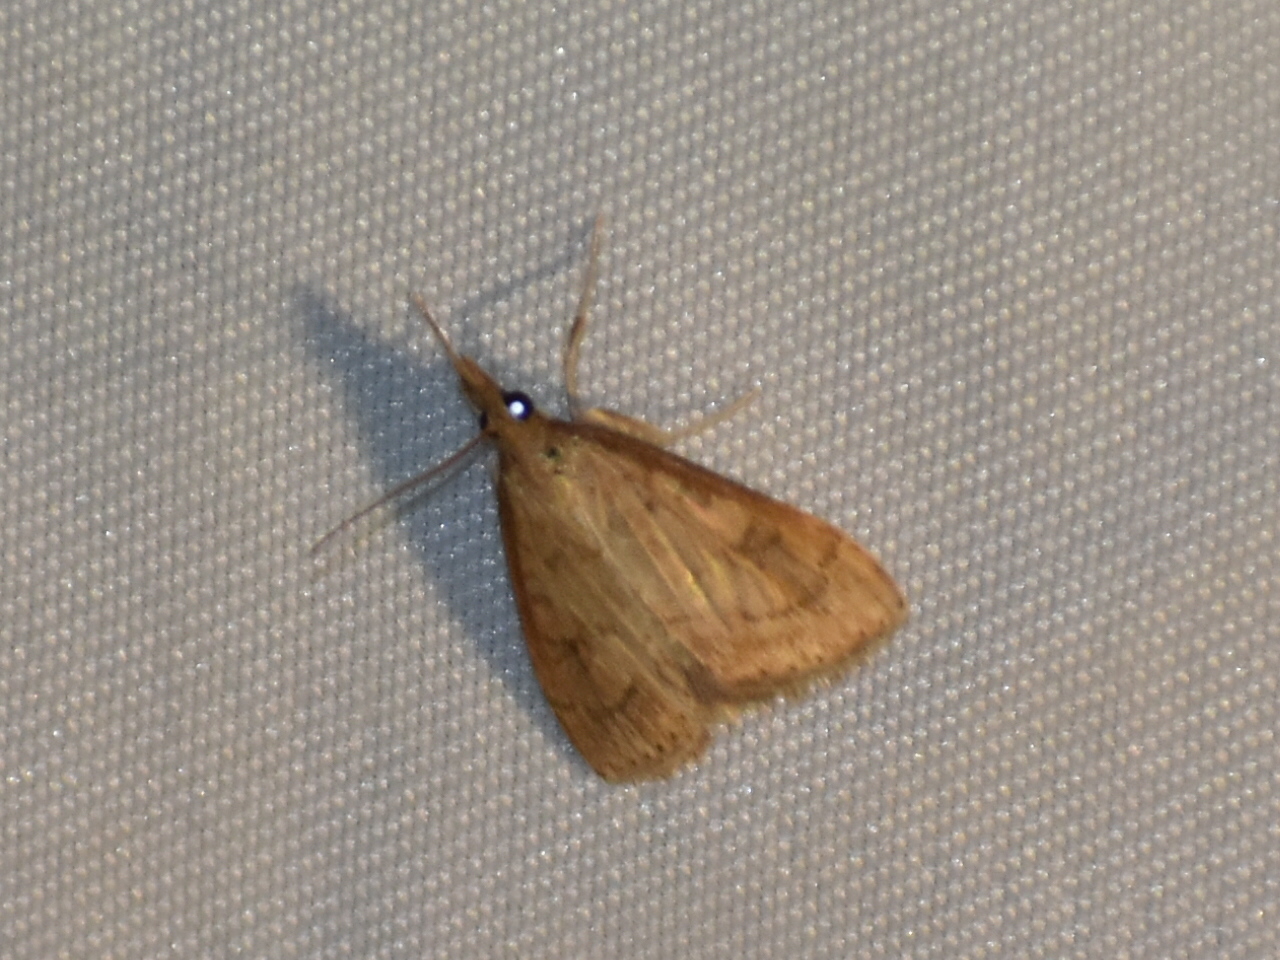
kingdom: Animalia
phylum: Arthropoda
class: Insecta
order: Lepidoptera
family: Crambidae
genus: Udea
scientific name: Udea rubigalis
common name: Celery leaftier moth
